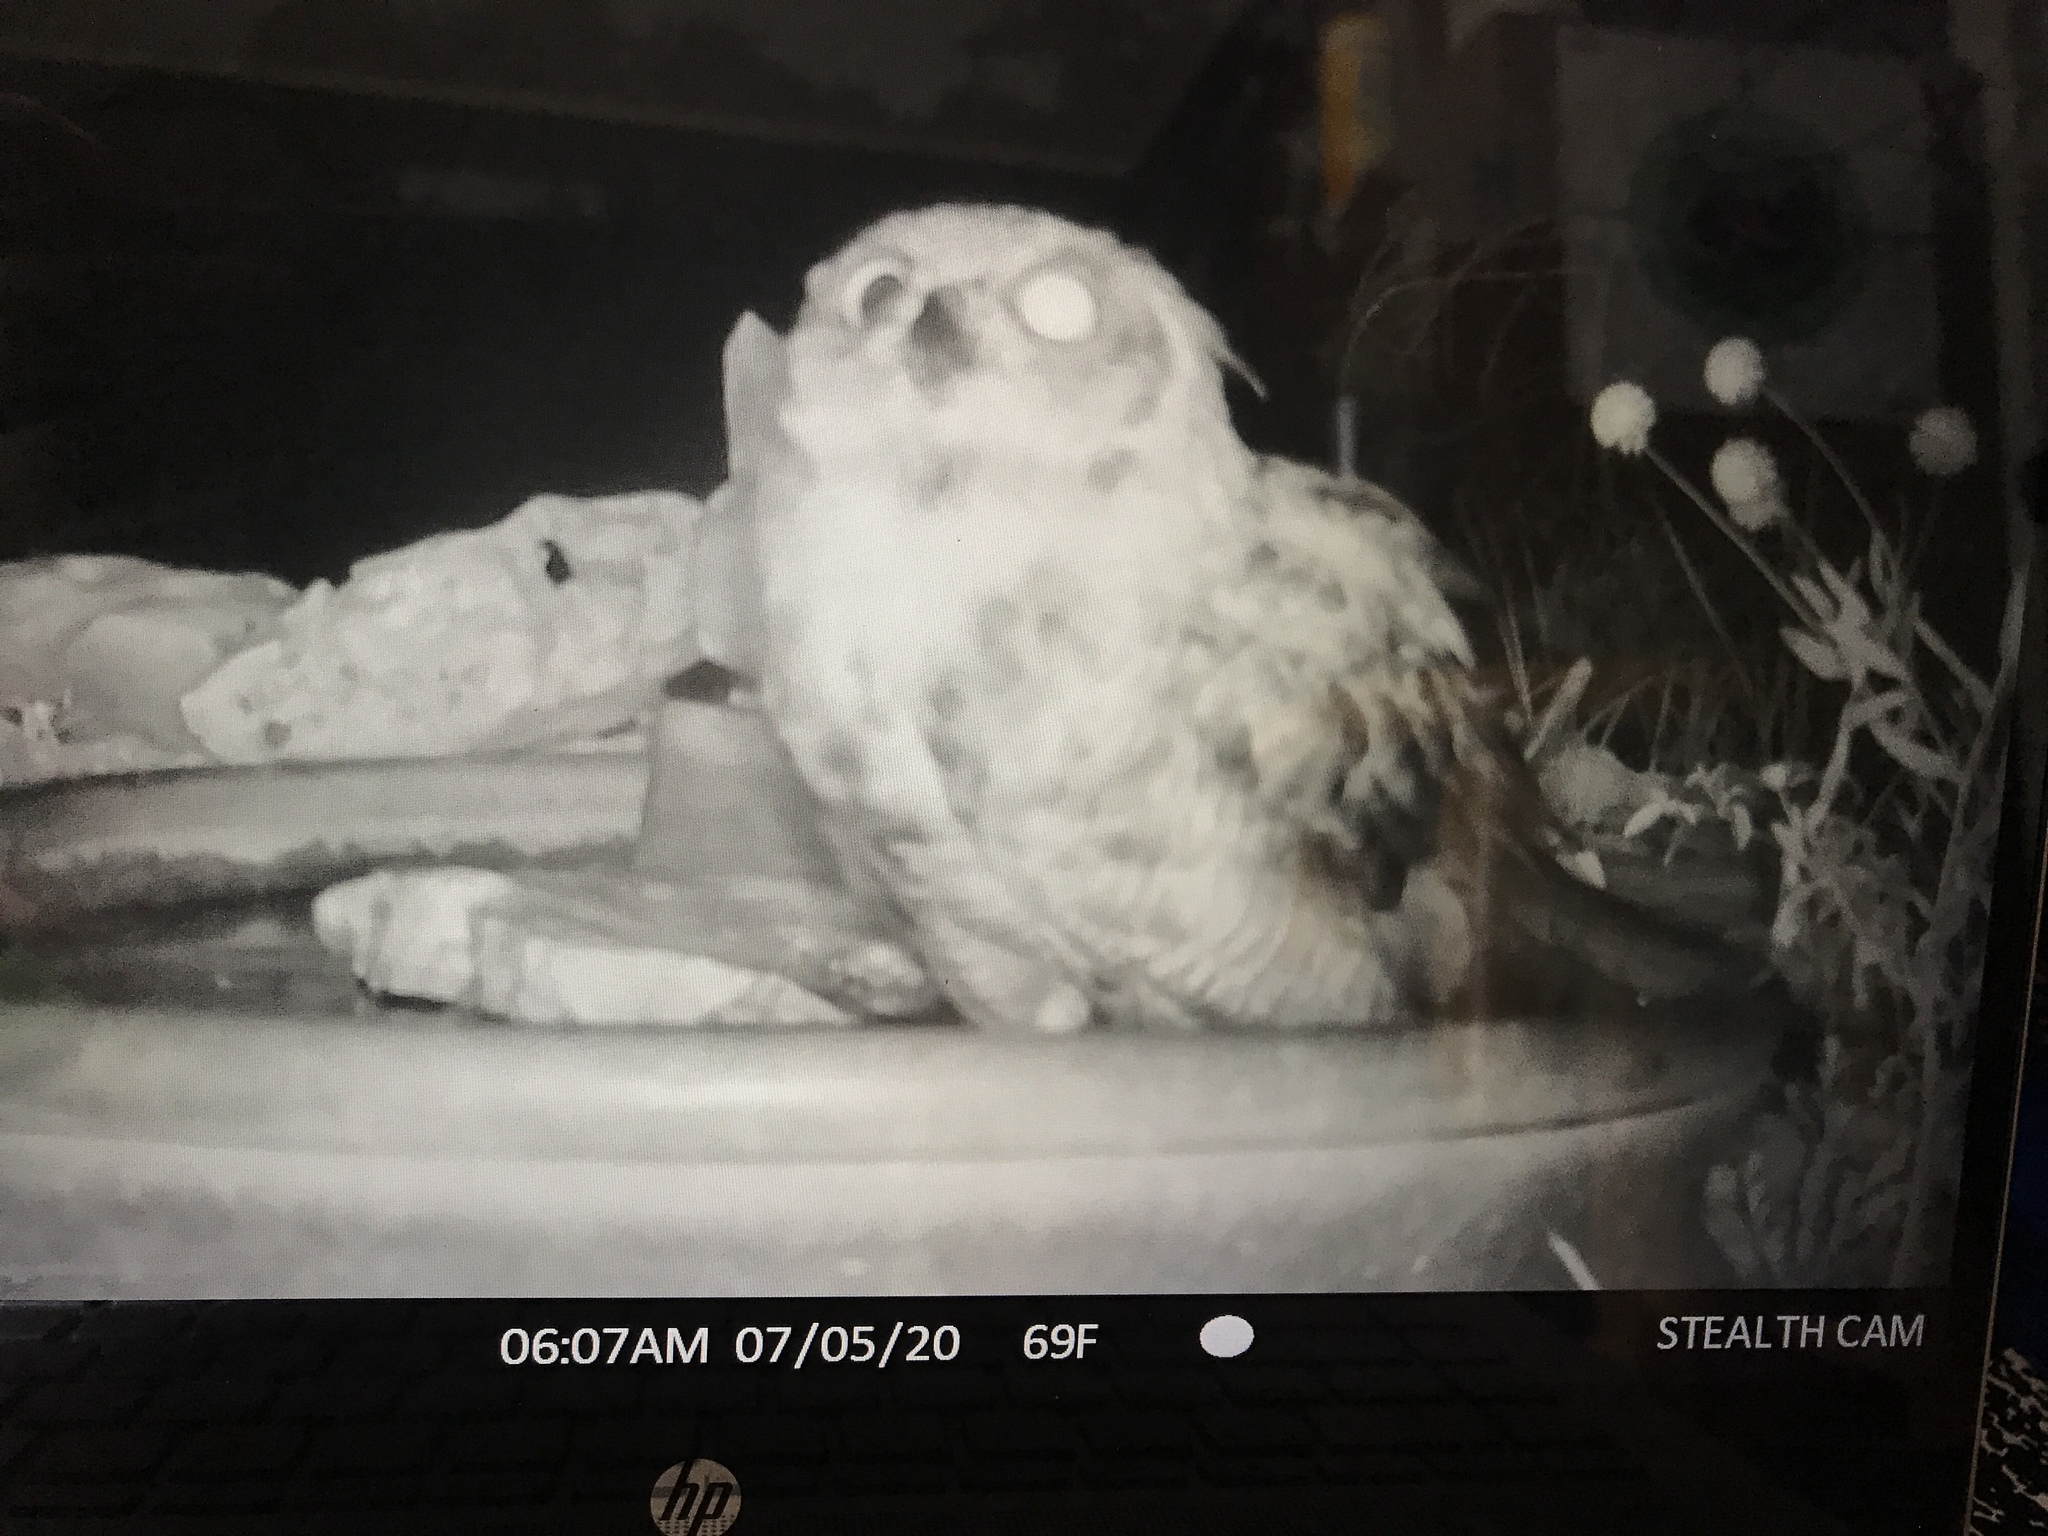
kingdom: Animalia
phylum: Chordata
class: Aves
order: Strigiformes
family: Strigidae
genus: Bubo
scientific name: Bubo virginianus
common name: Great horned owl
